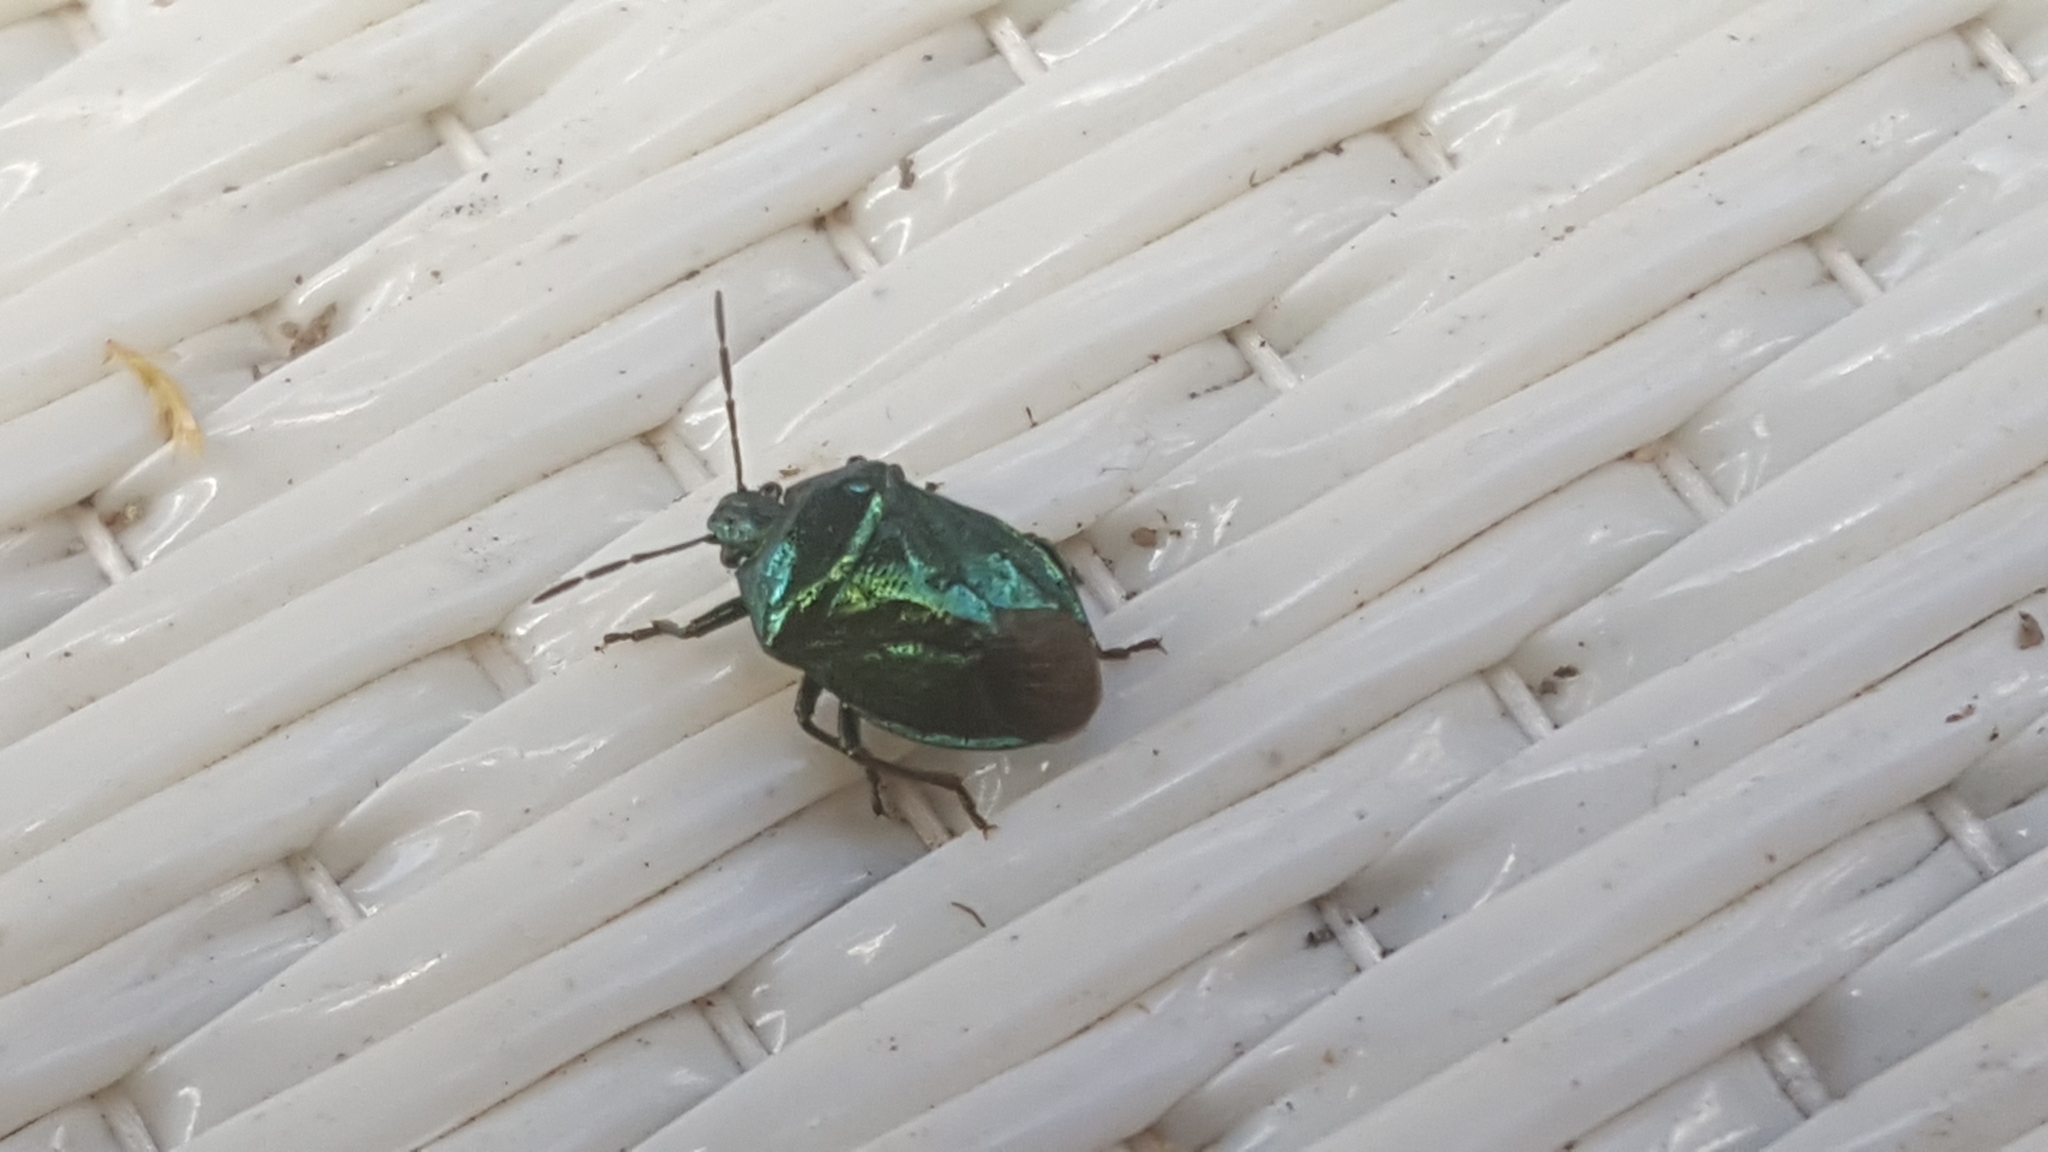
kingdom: Animalia
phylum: Arthropoda
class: Insecta
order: Hemiptera
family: Pentatomidae
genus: Zicrona
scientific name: Zicrona caerulea
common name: Blue shieldbug
